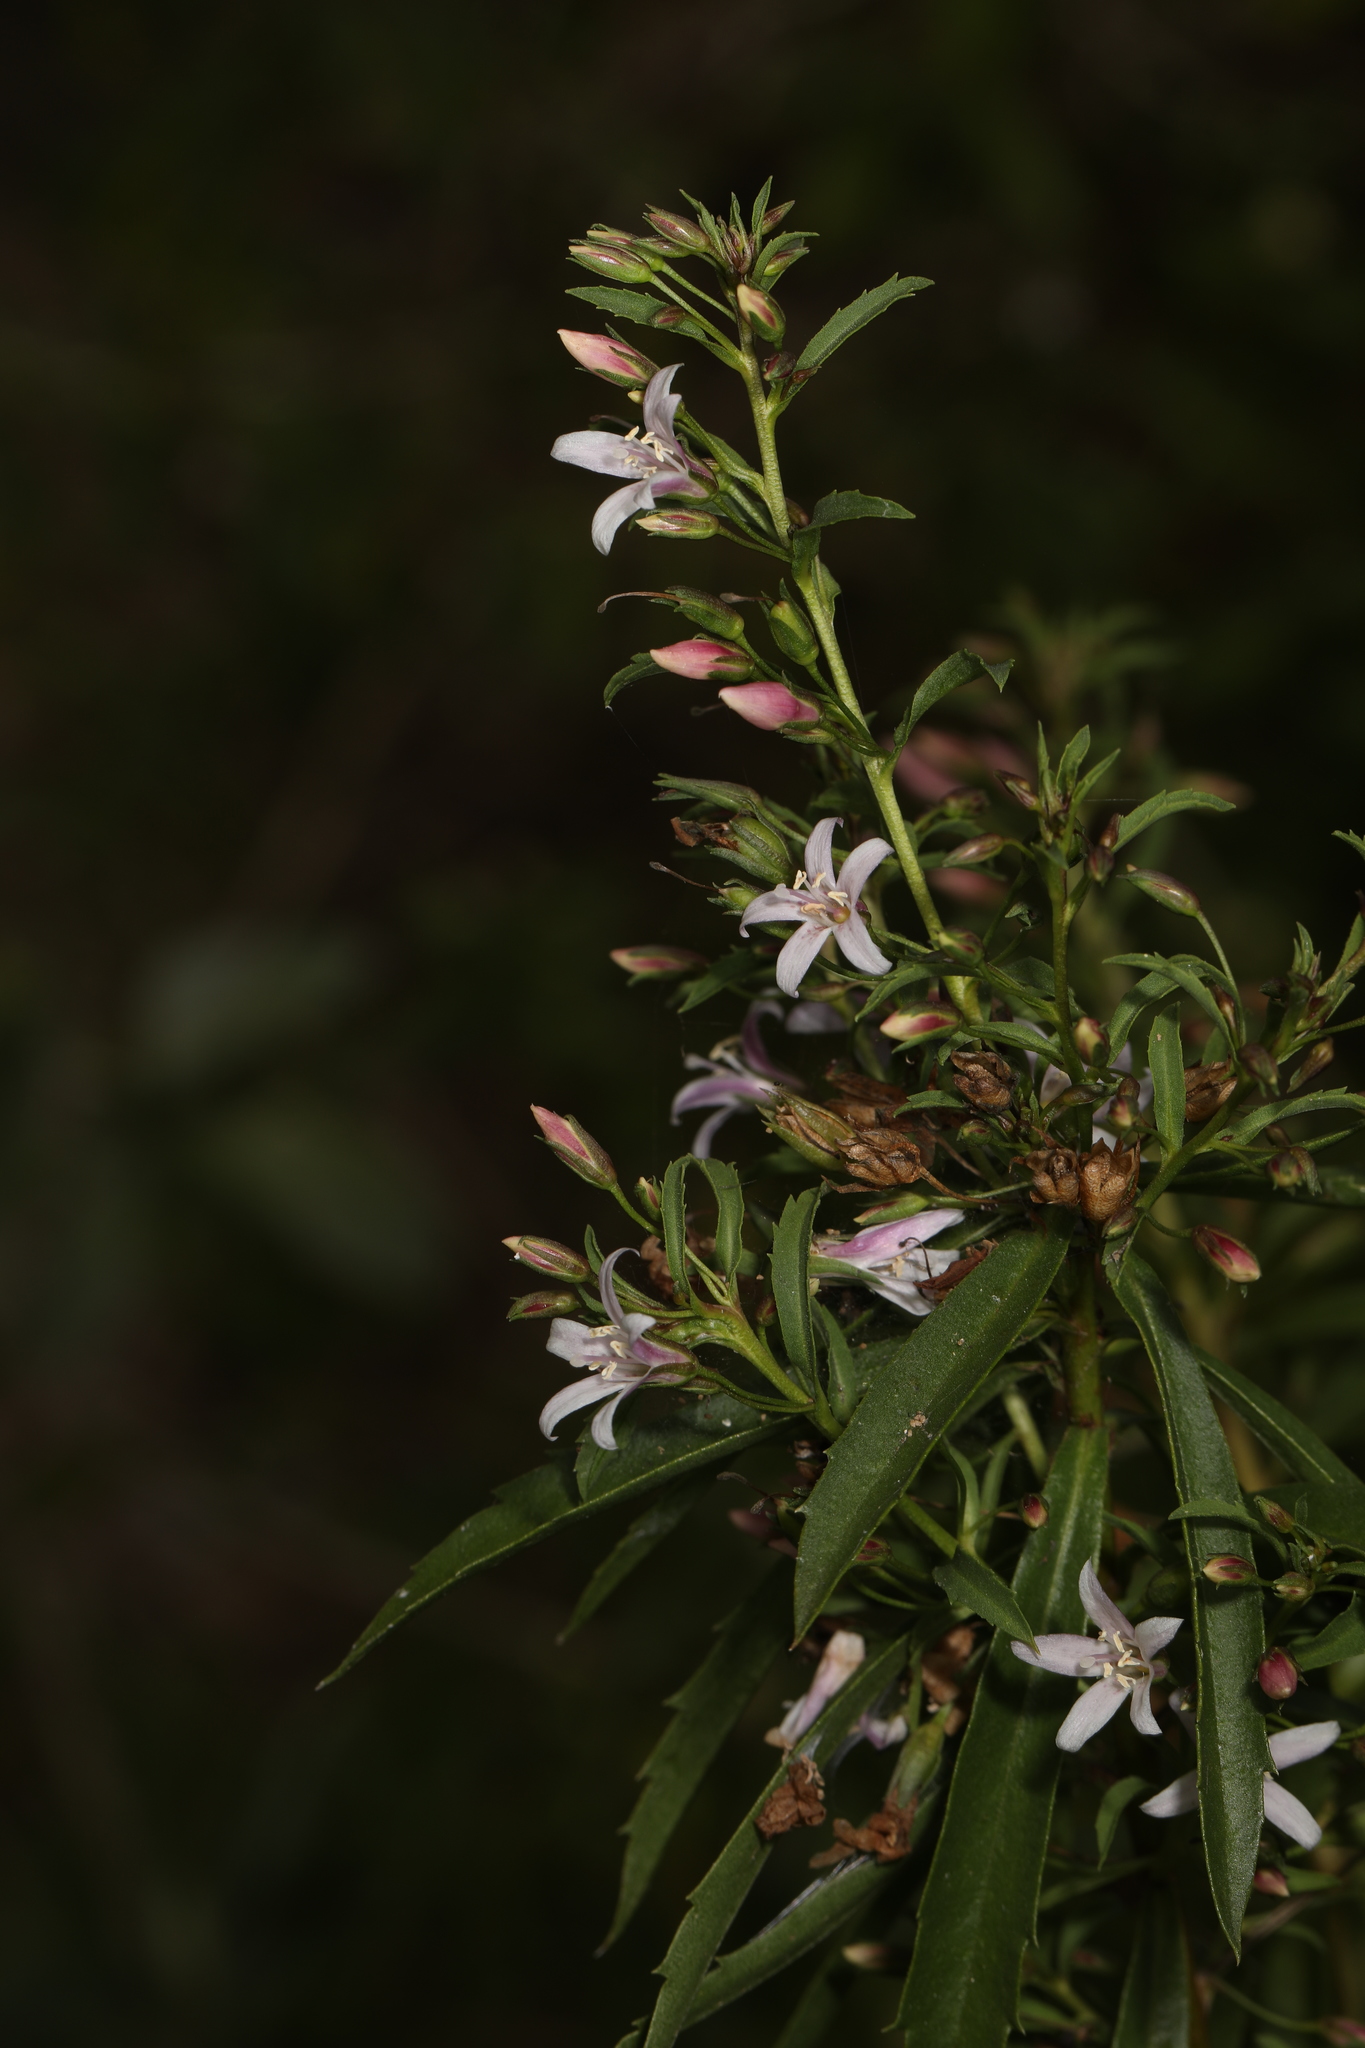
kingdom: Plantae
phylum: Tracheophyta
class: Magnoliopsida
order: Lamiales
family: Scrophulariaceae
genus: Capraria
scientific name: Capraria biflora
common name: Goatweed
